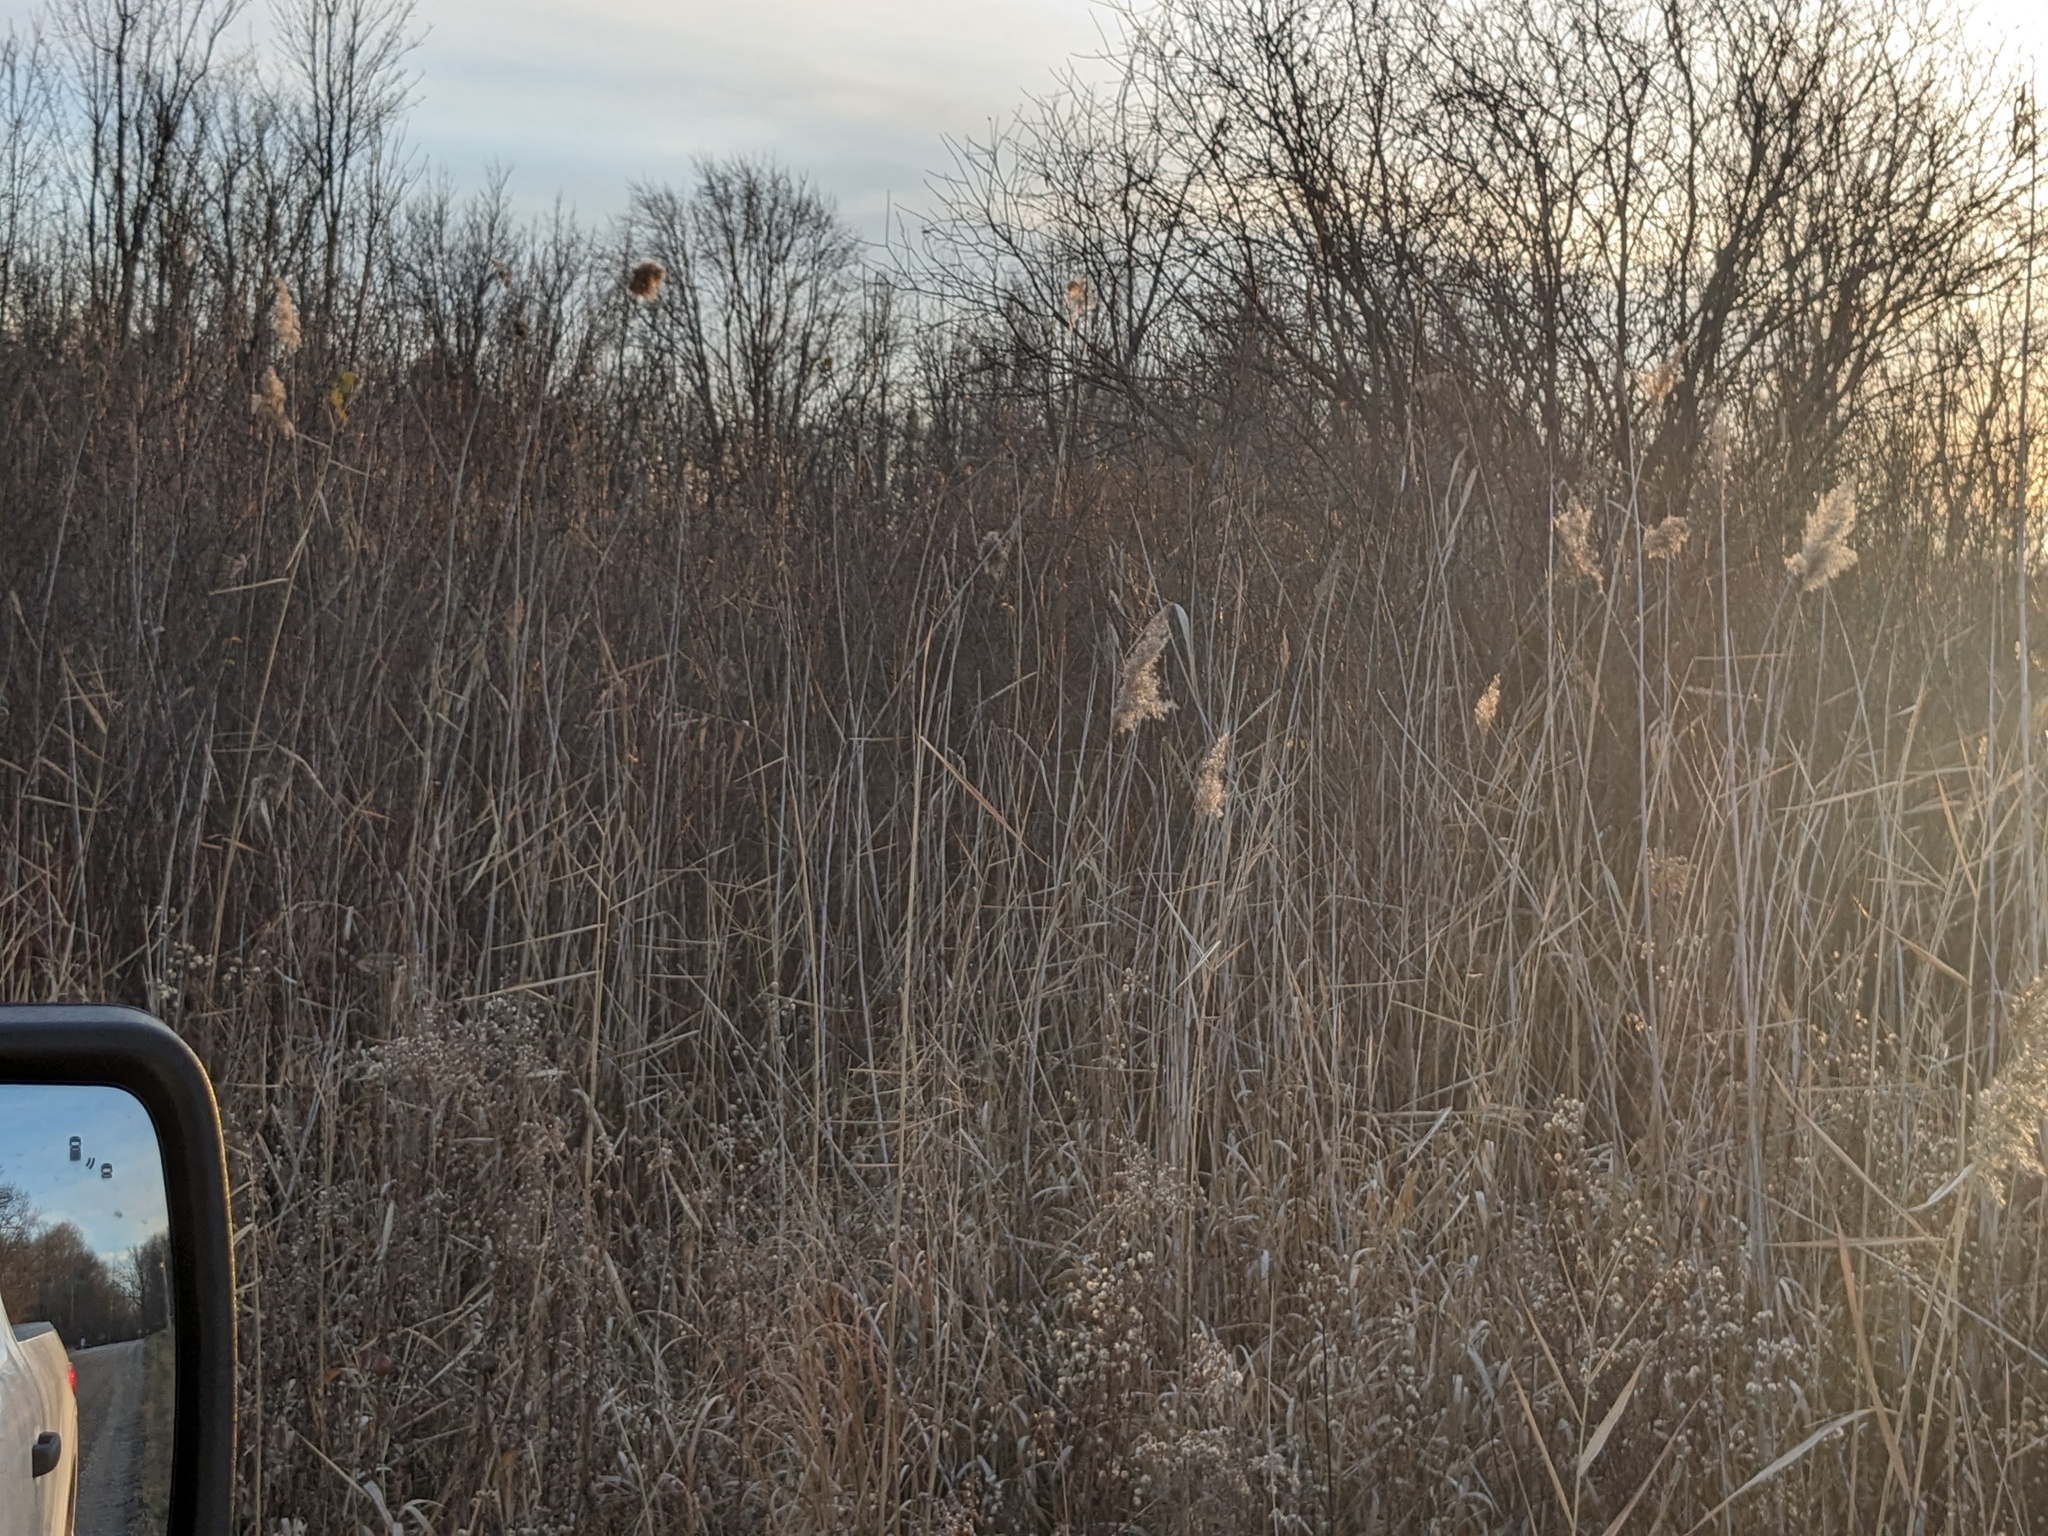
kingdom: Plantae
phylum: Tracheophyta
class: Liliopsida
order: Poales
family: Poaceae
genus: Phragmites
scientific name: Phragmites australis
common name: Common reed
